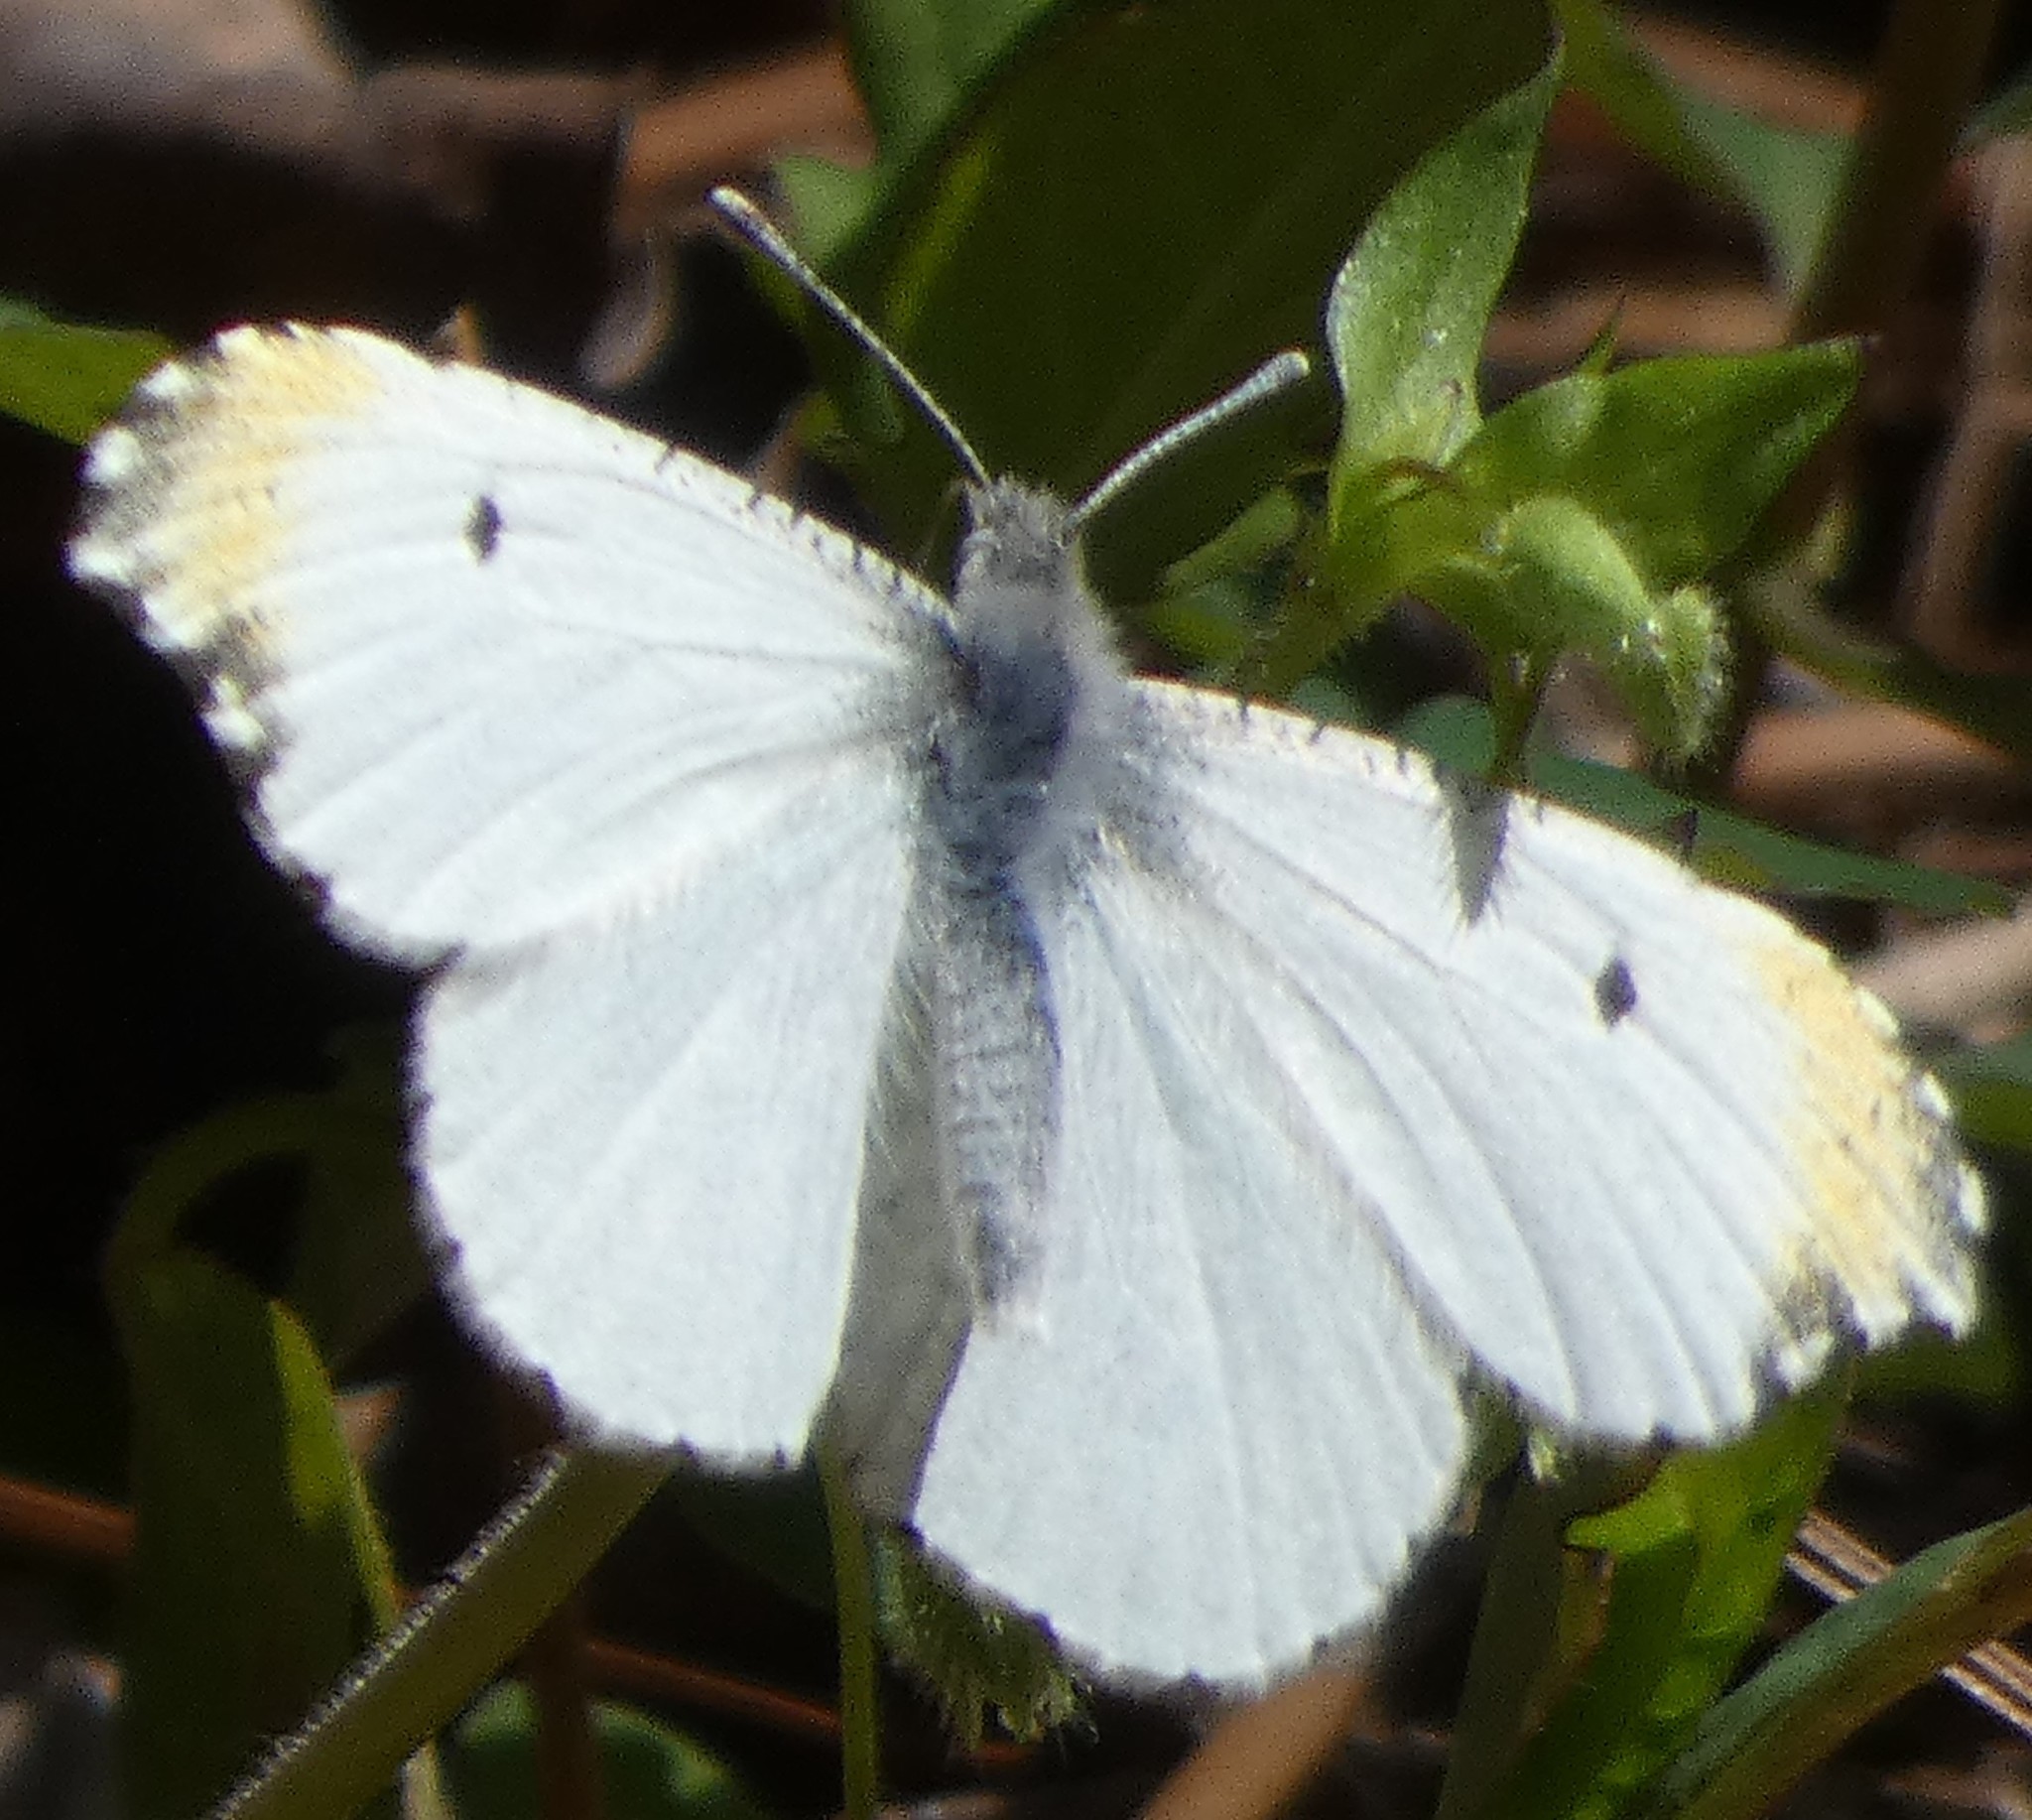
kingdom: Animalia
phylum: Arthropoda
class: Insecta
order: Lepidoptera
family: Pieridae
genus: Anthocharis
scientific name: Anthocharis midea
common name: Falcate orangetip
